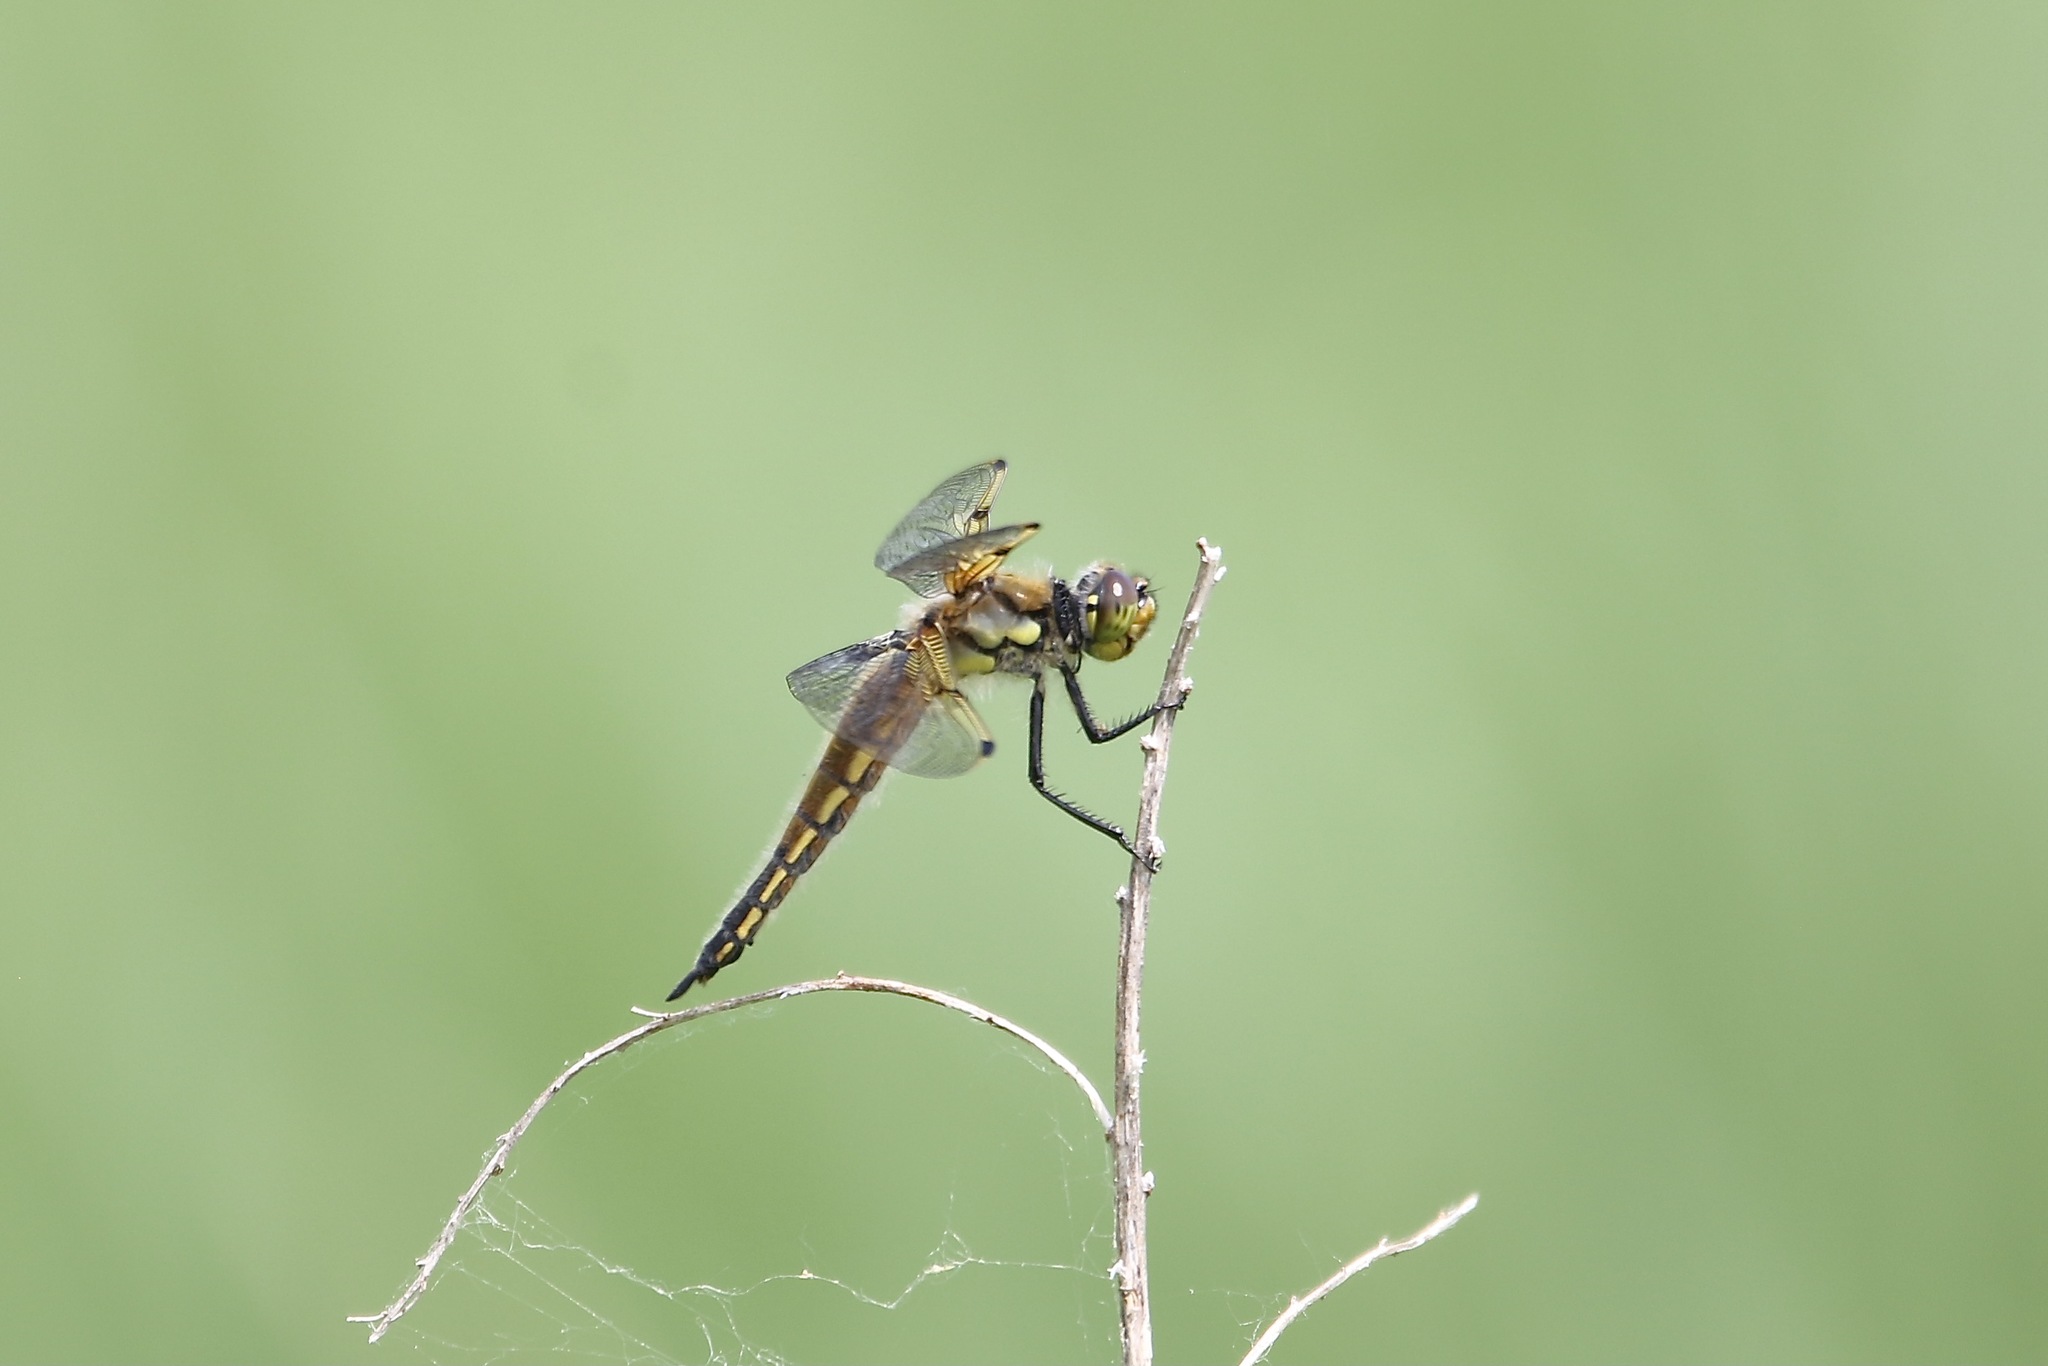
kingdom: Animalia
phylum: Arthropoda
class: Insecta
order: Odonata
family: Libellulidae
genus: Libellula
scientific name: Libellula quadrimaculata
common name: Four-spotted chaser
